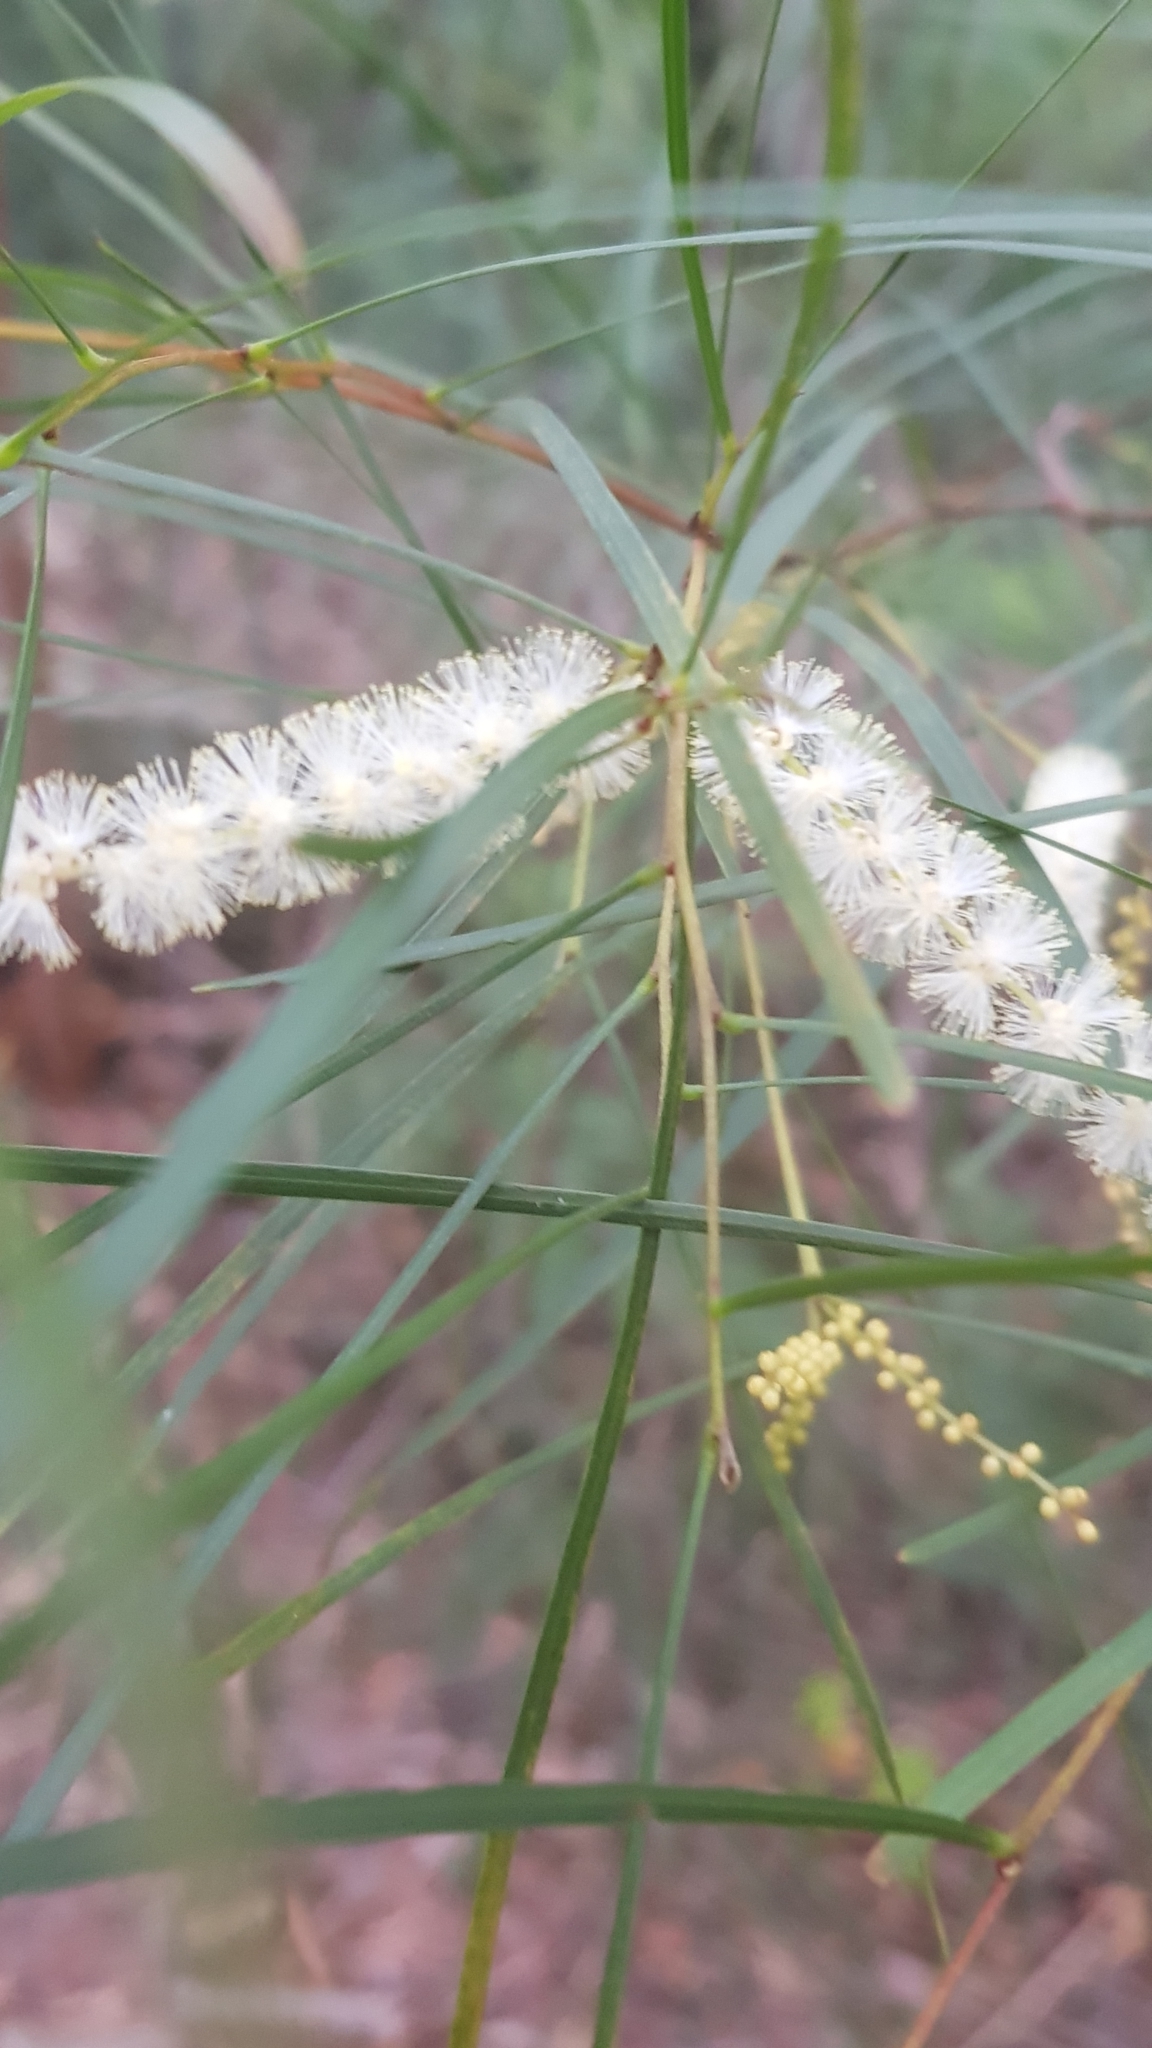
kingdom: Plantae
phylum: Tracheophyta
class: Magnoliopsida
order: Fabales
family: Fabaceae
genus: Acacia
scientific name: Acacia longissima
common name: Longleaf wattle
